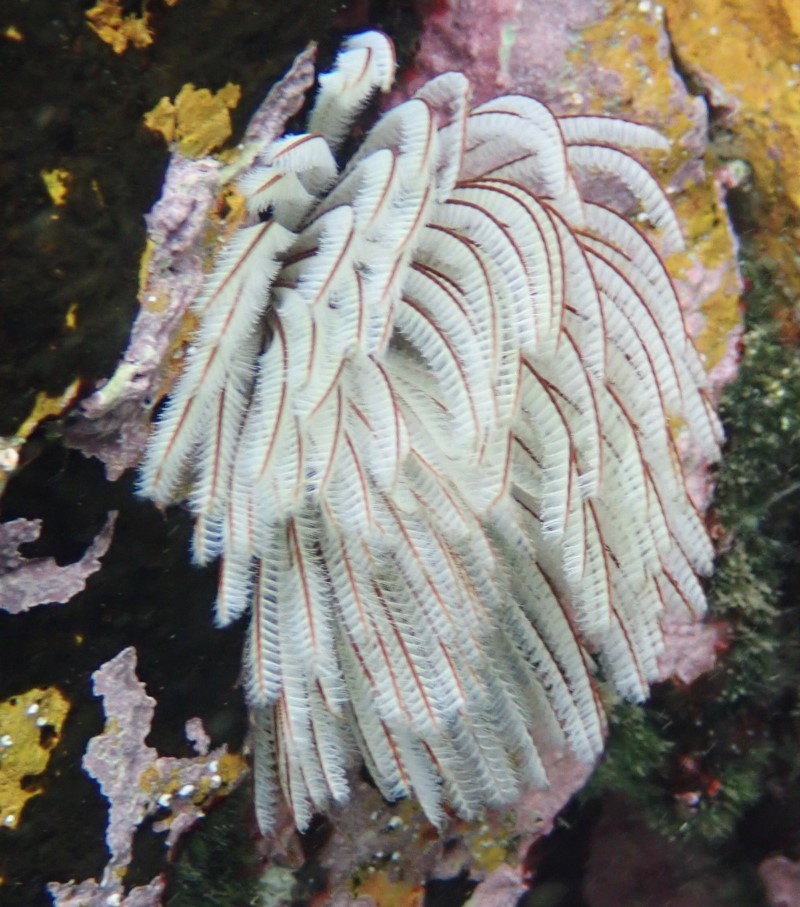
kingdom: Animalia
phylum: Annelida
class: Polychaeta
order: Sabellida
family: Sabellidae
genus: Sabellastarte
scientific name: Sabellastarte australiensis
